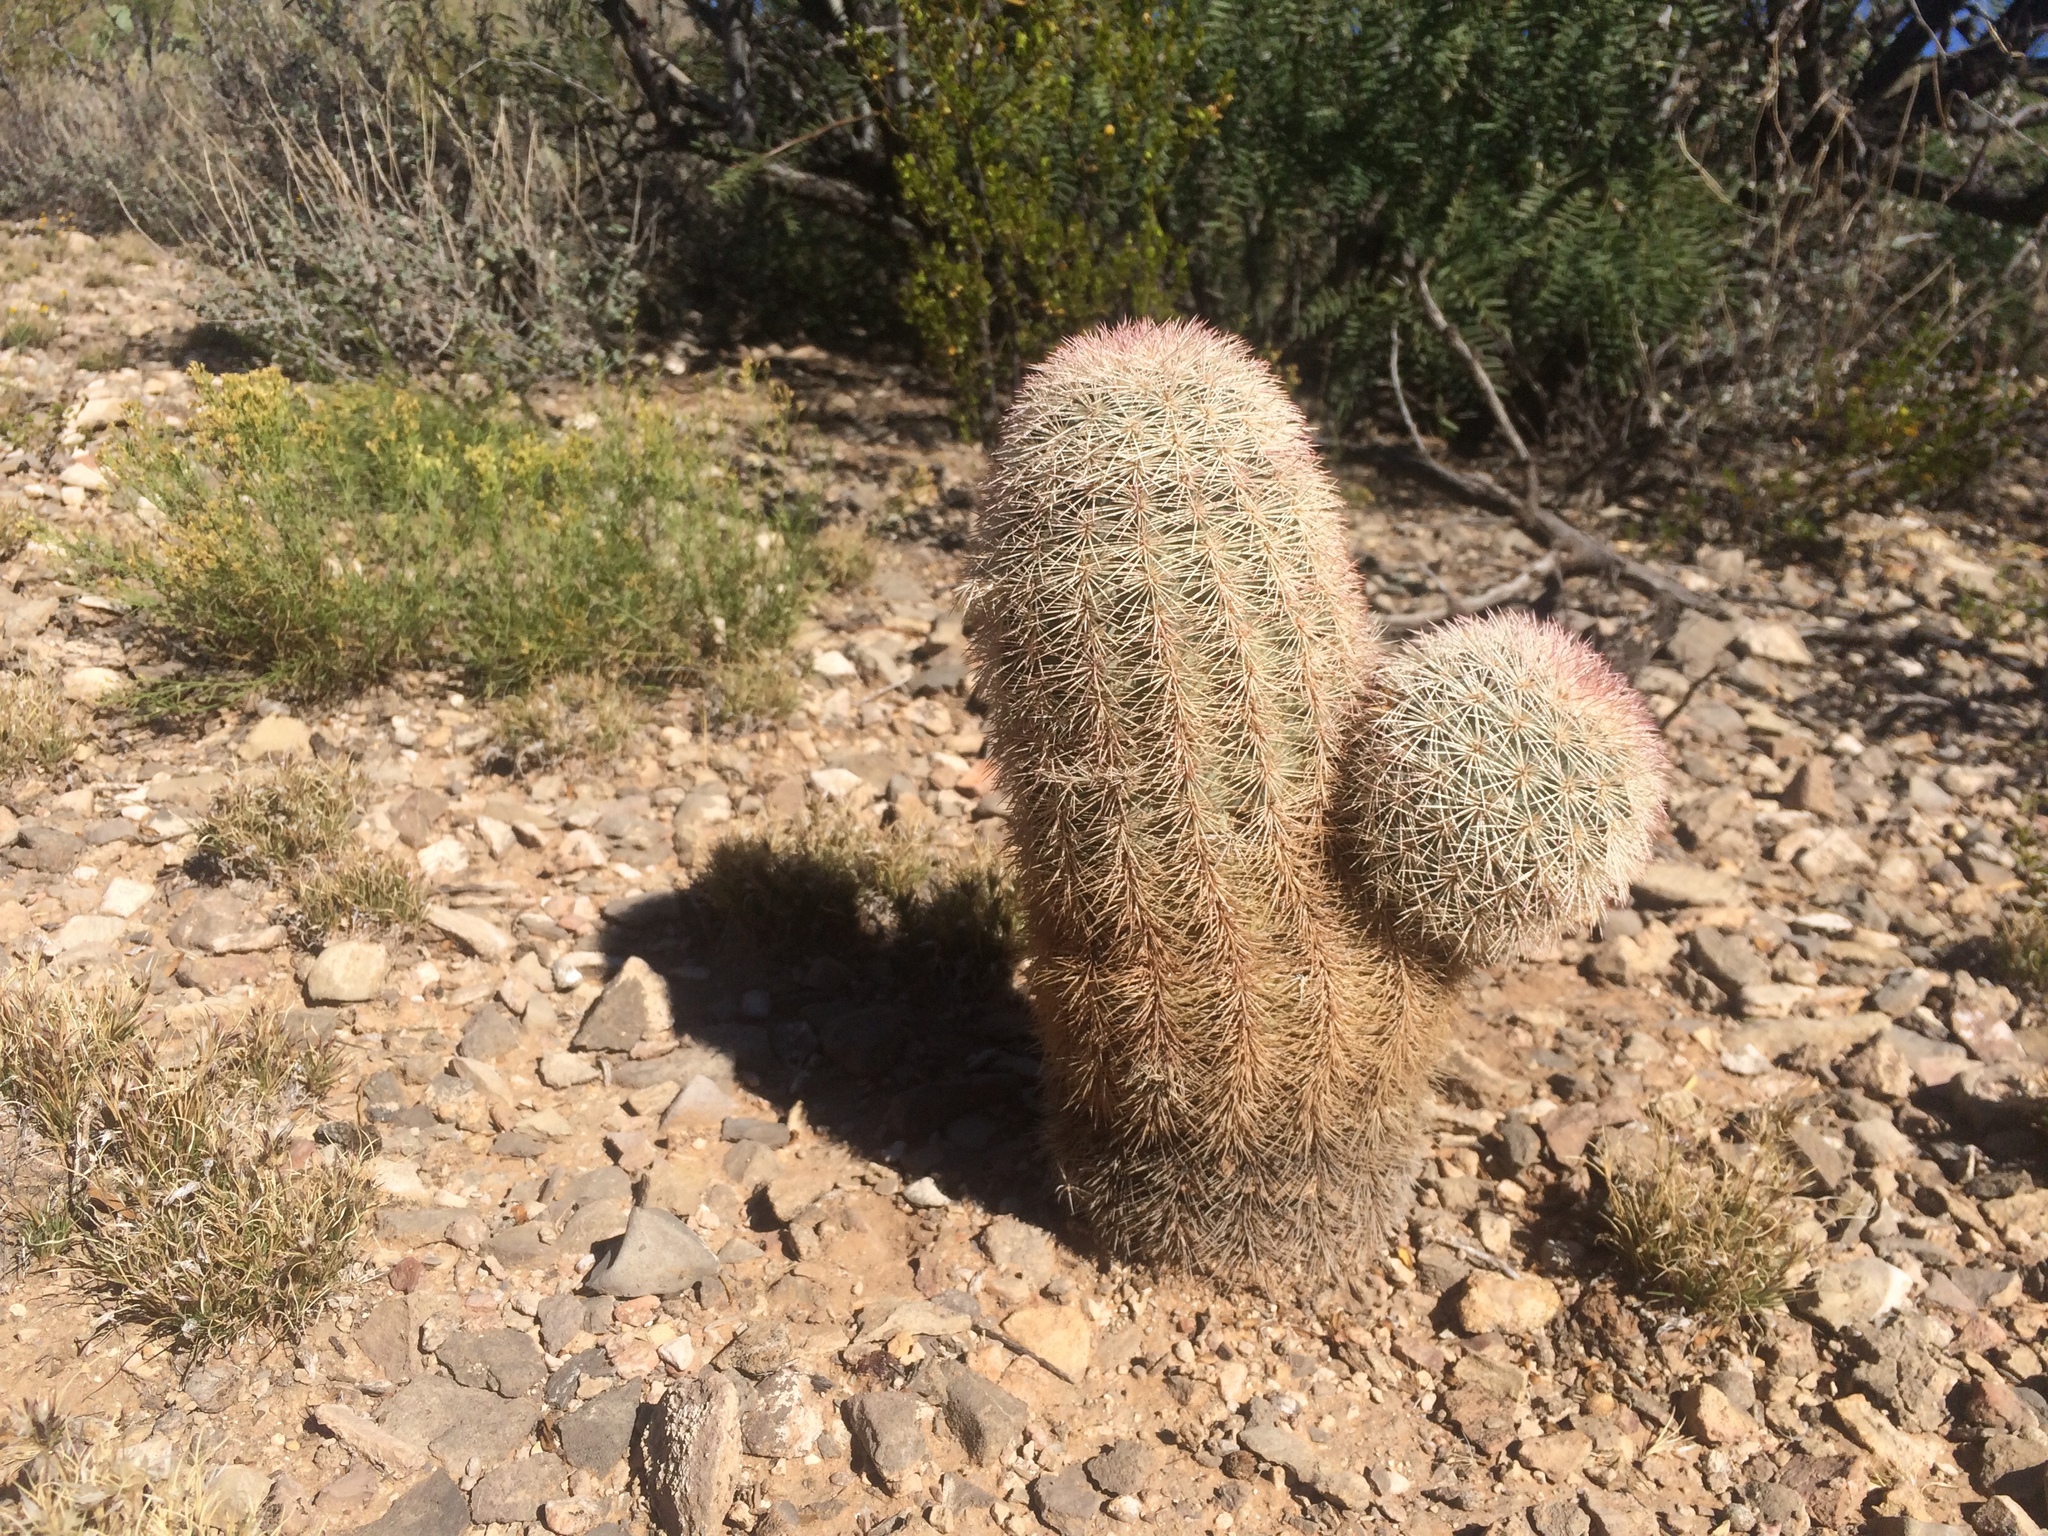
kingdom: Plantae
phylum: Tracheophyta
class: Magnoliopsida
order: Caryophyllales
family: Cactaceae
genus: Echinocereus
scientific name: Echinocereus dasyacanthus
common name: Spiny hedgehog cactus
